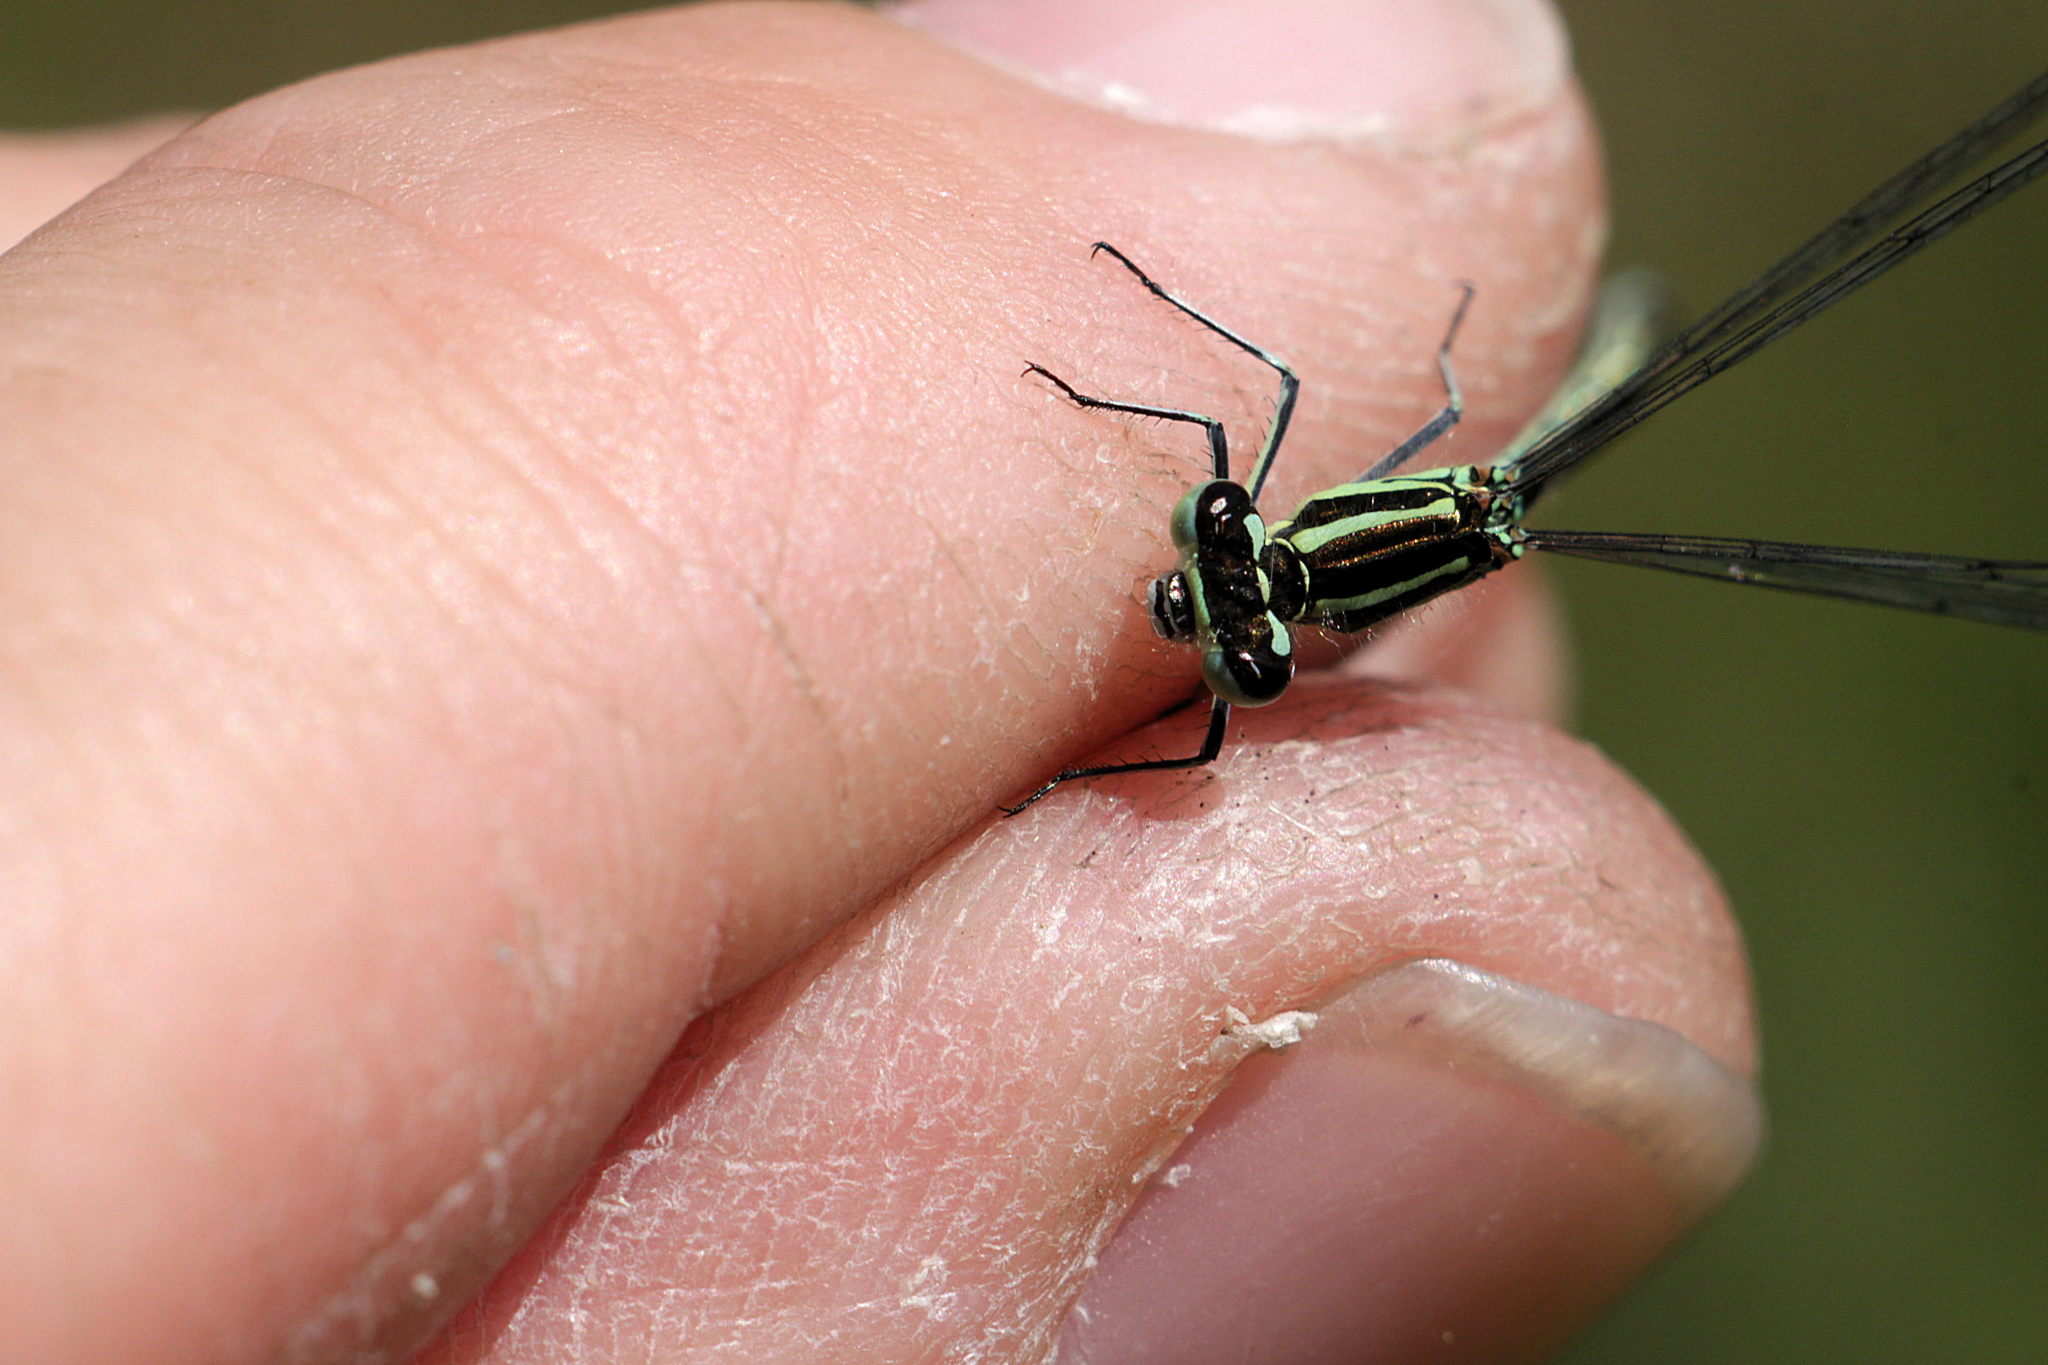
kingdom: Animalia
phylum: Arthropoda
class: Insecta
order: Odonata
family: Coenagrionidae
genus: Coenagrion
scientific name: Coenagrion puella
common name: Azure damselfly
